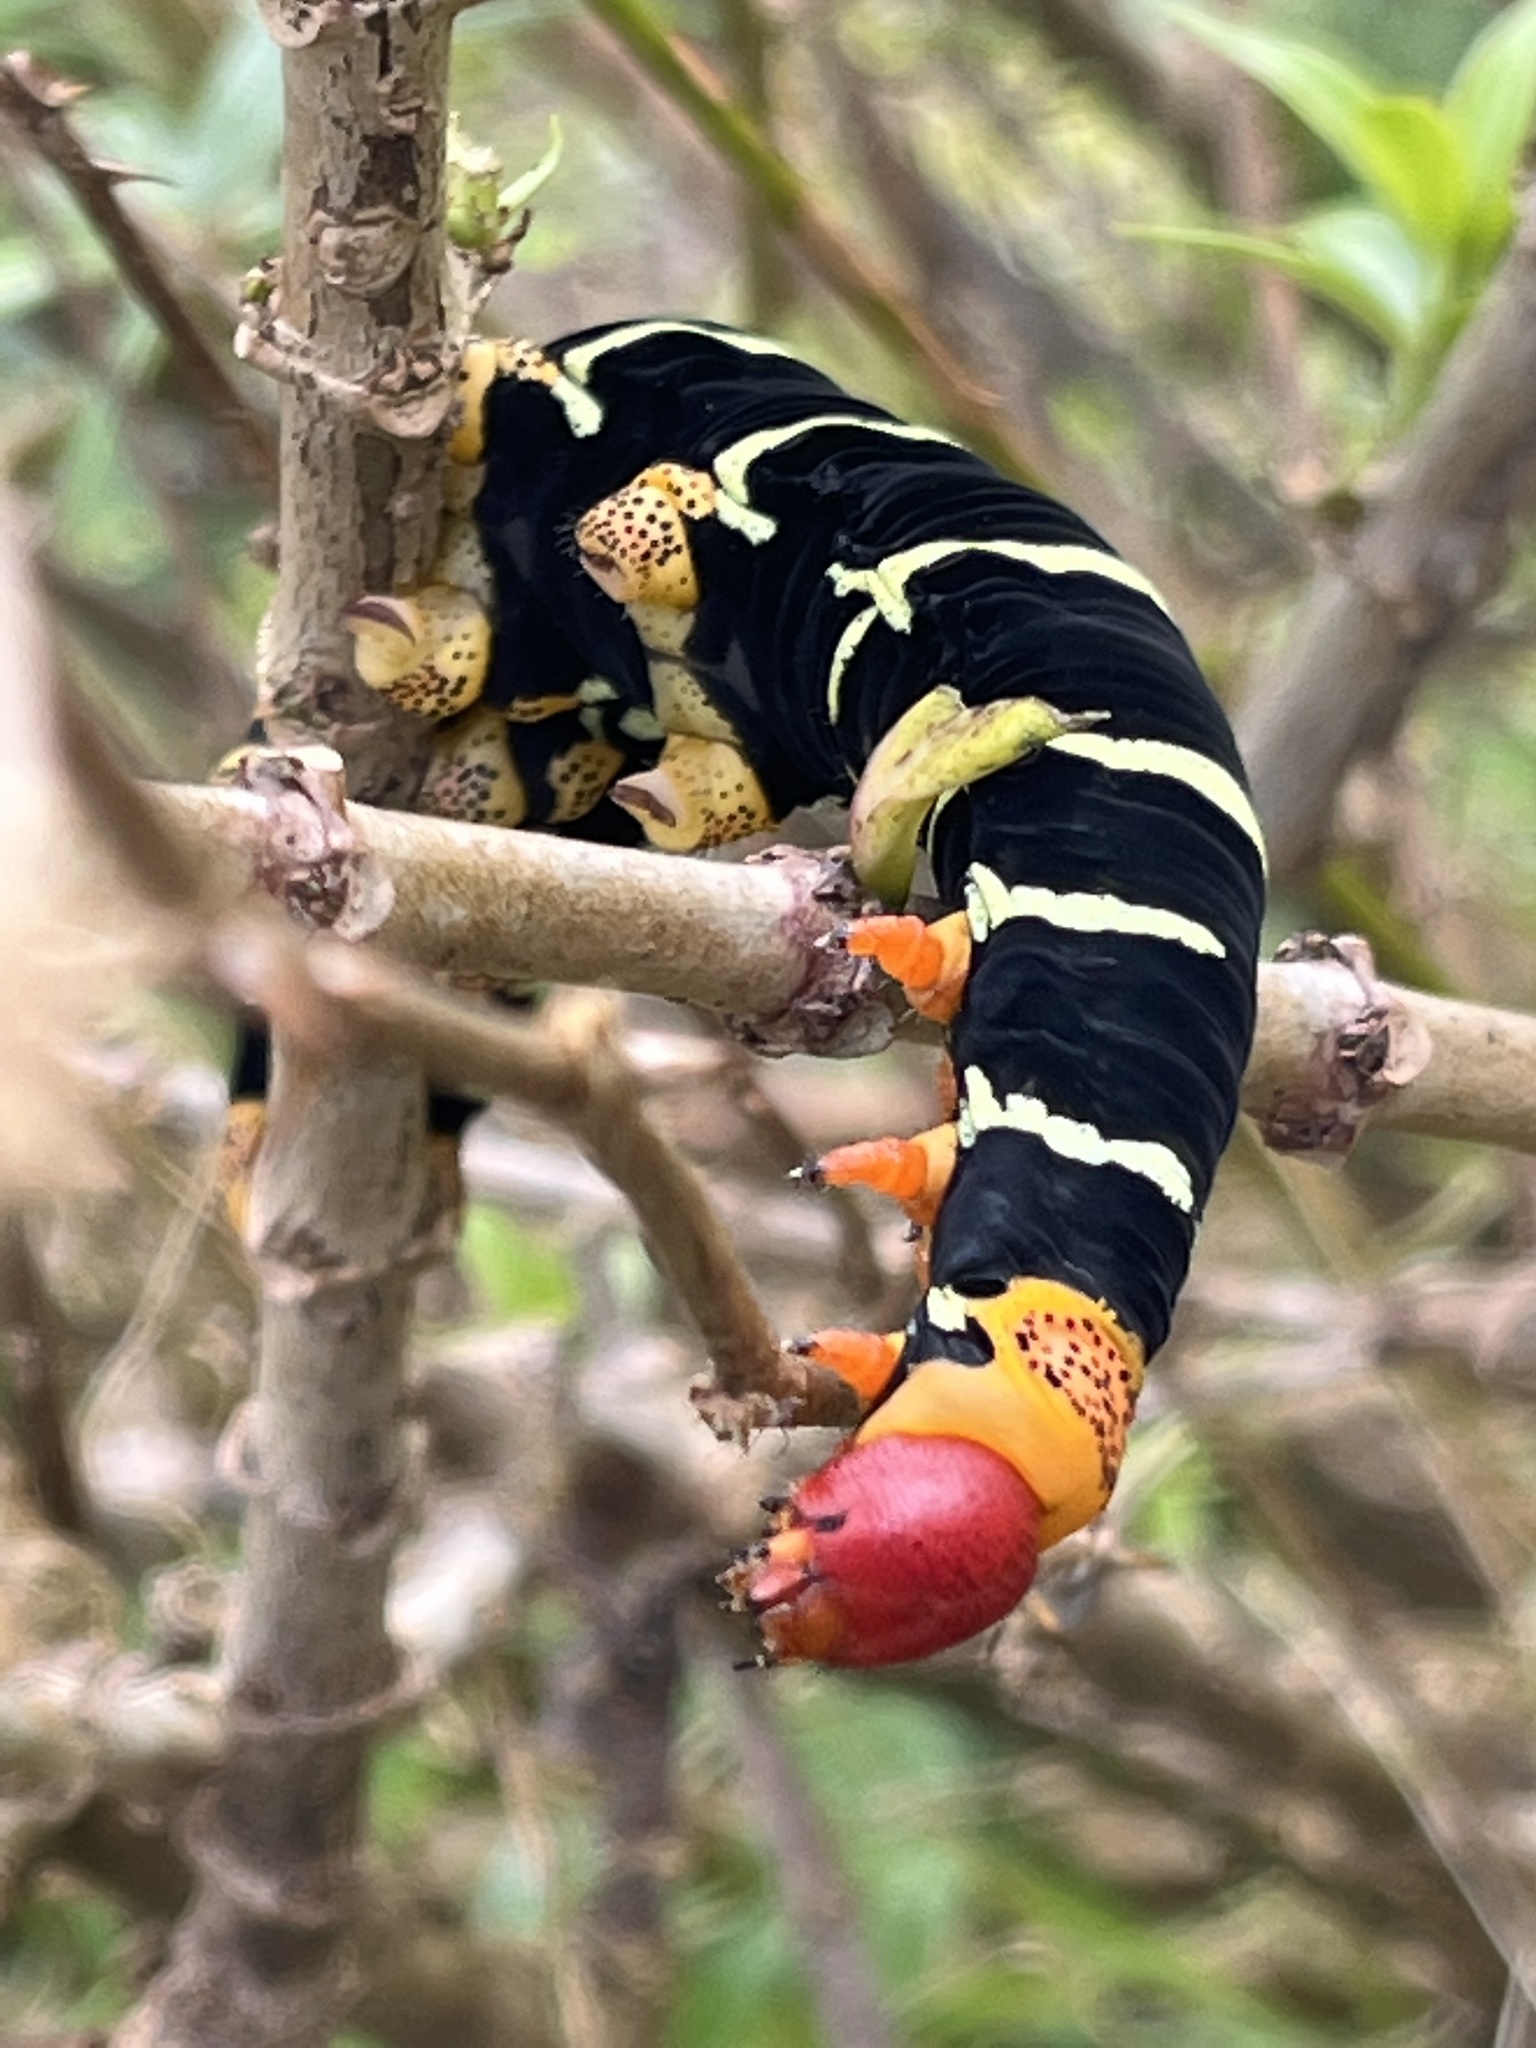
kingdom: Animalia
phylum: Arthropoda
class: Insecta
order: Lepidoptera
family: Sphingidae
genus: Pseudosphinx
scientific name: Pseudosphinx tetrio
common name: Tetrio sphinx
